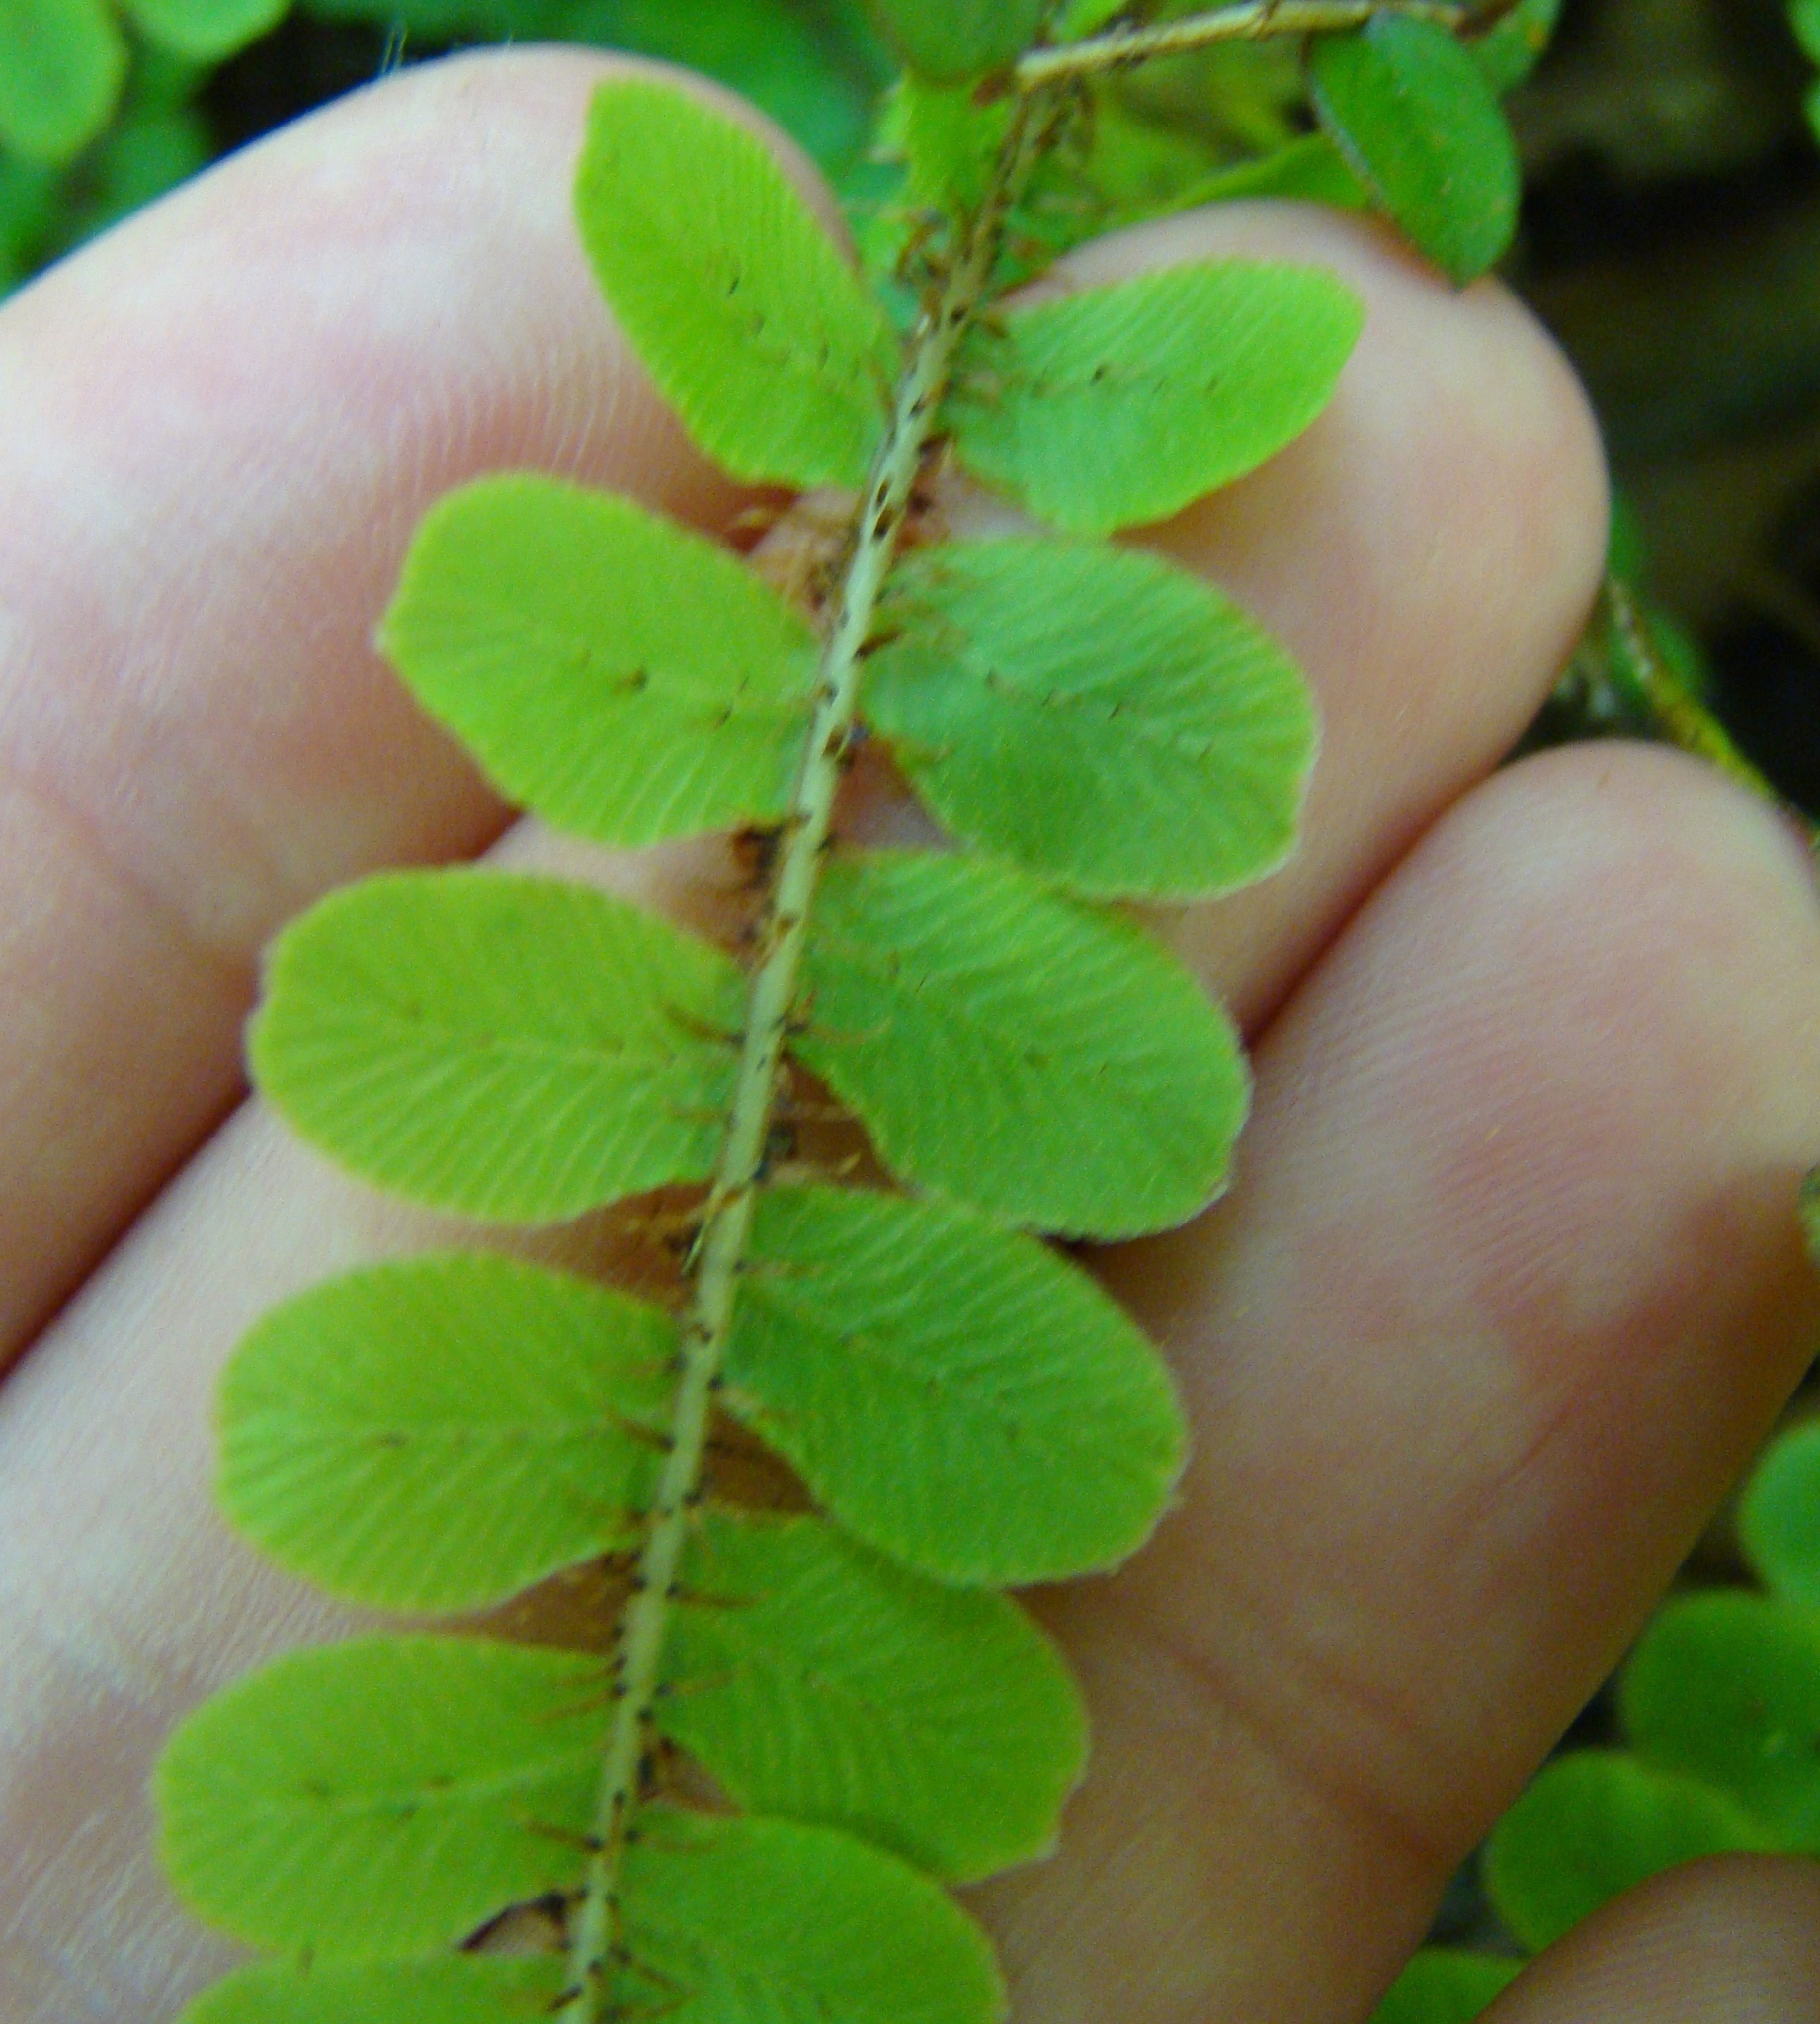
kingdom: Plantae
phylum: Tracheophyta
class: Polypodiopsida
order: Polypodiales
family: Blechnaceae
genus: Cranfillia
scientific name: Cranfillia fluviatilis
